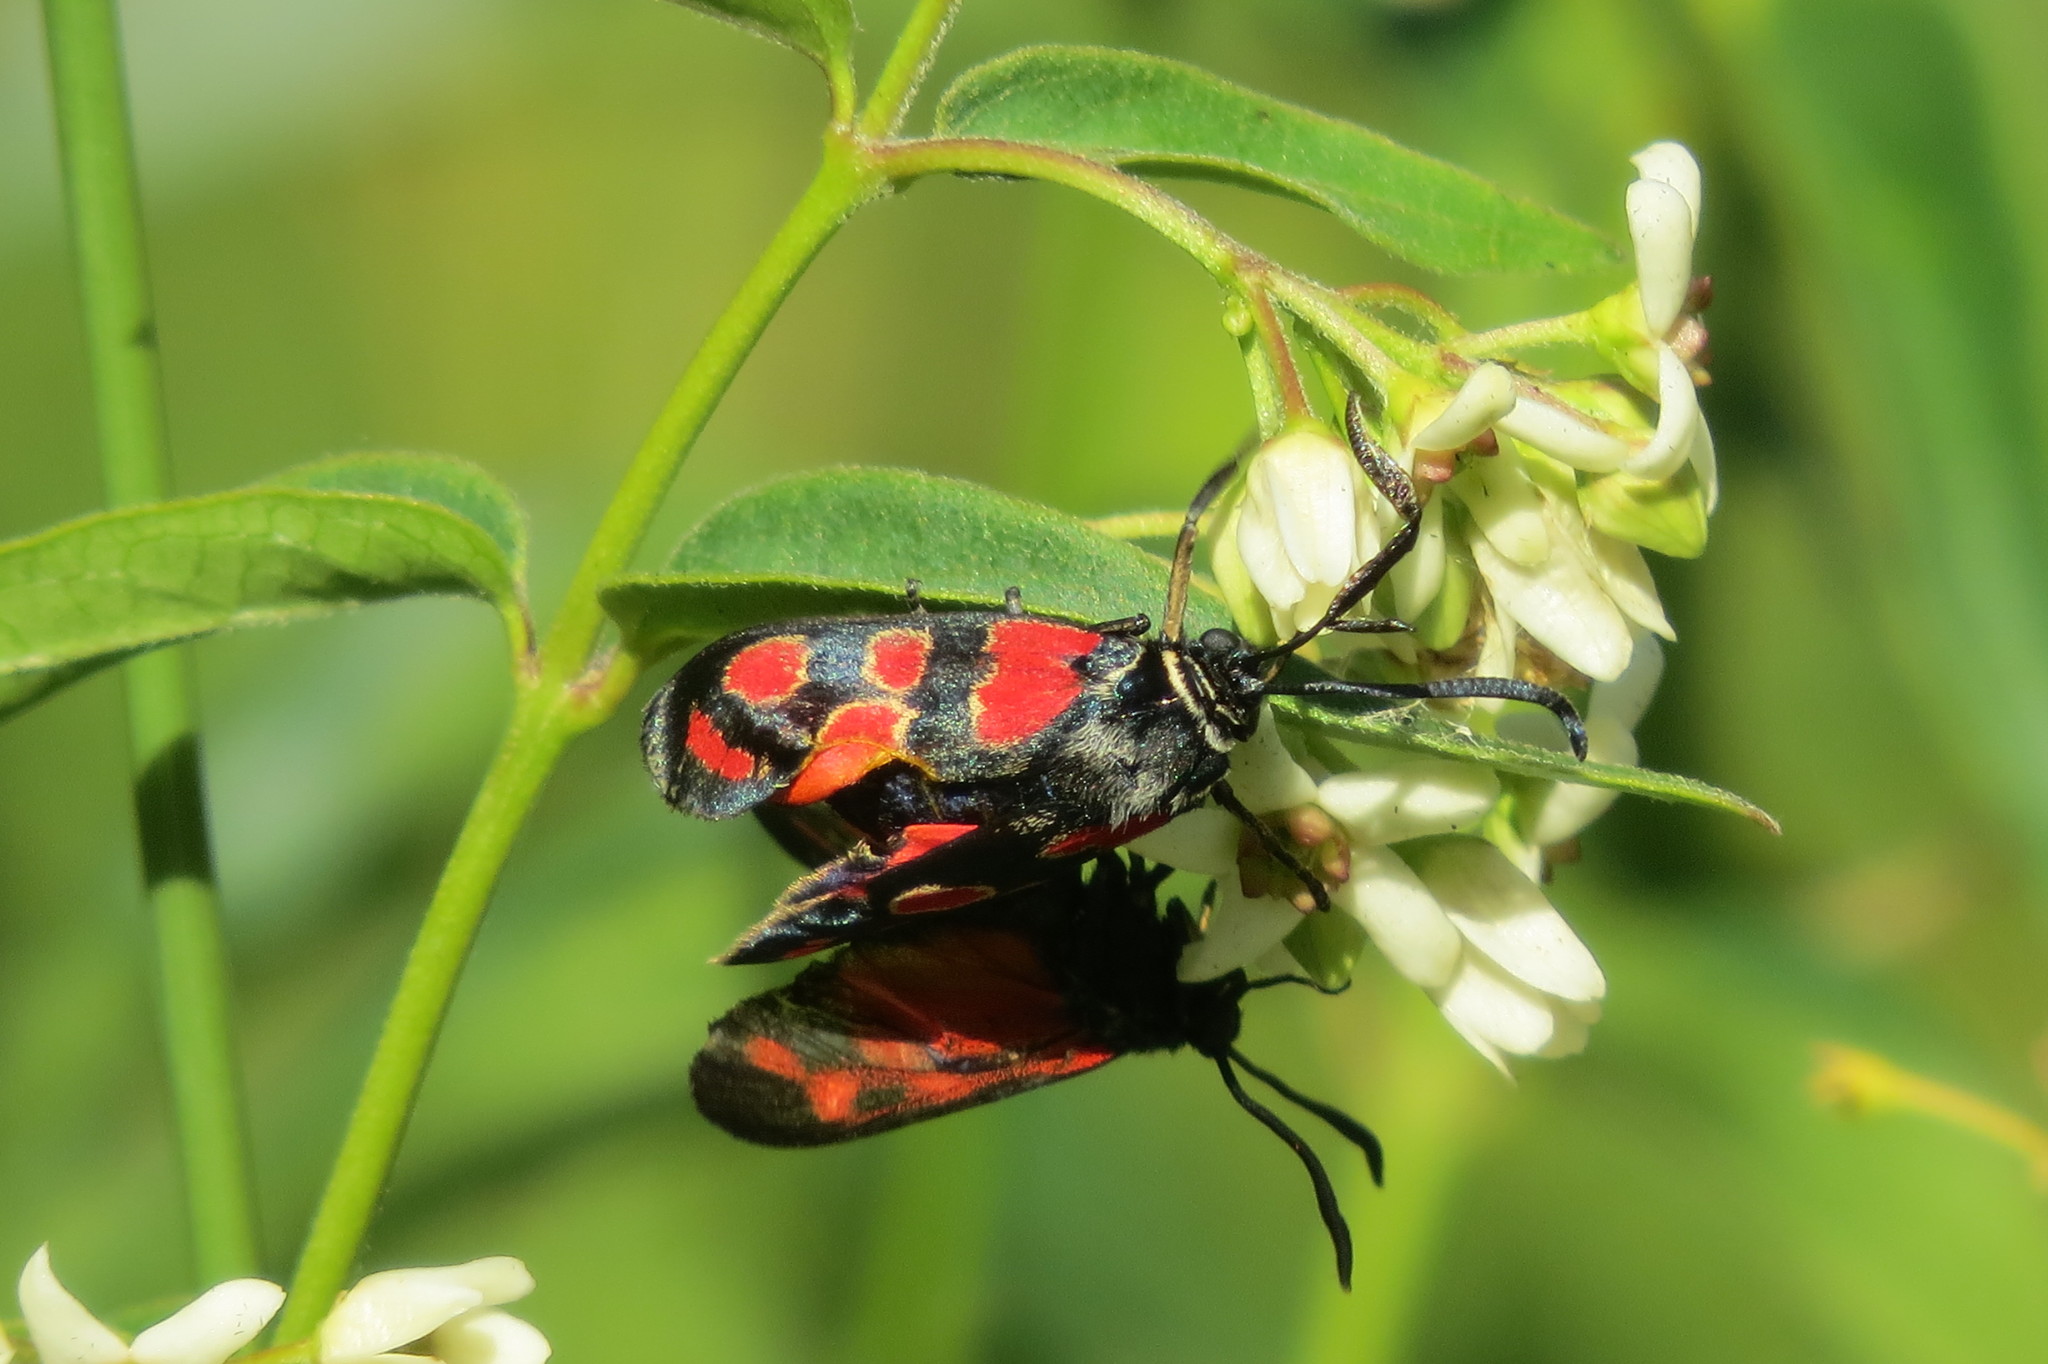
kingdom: Animalia
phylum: Arthropoda
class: Insecta
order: Lepidoptera
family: Zygaenidae
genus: Zygaena
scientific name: Zygaena carniolica
